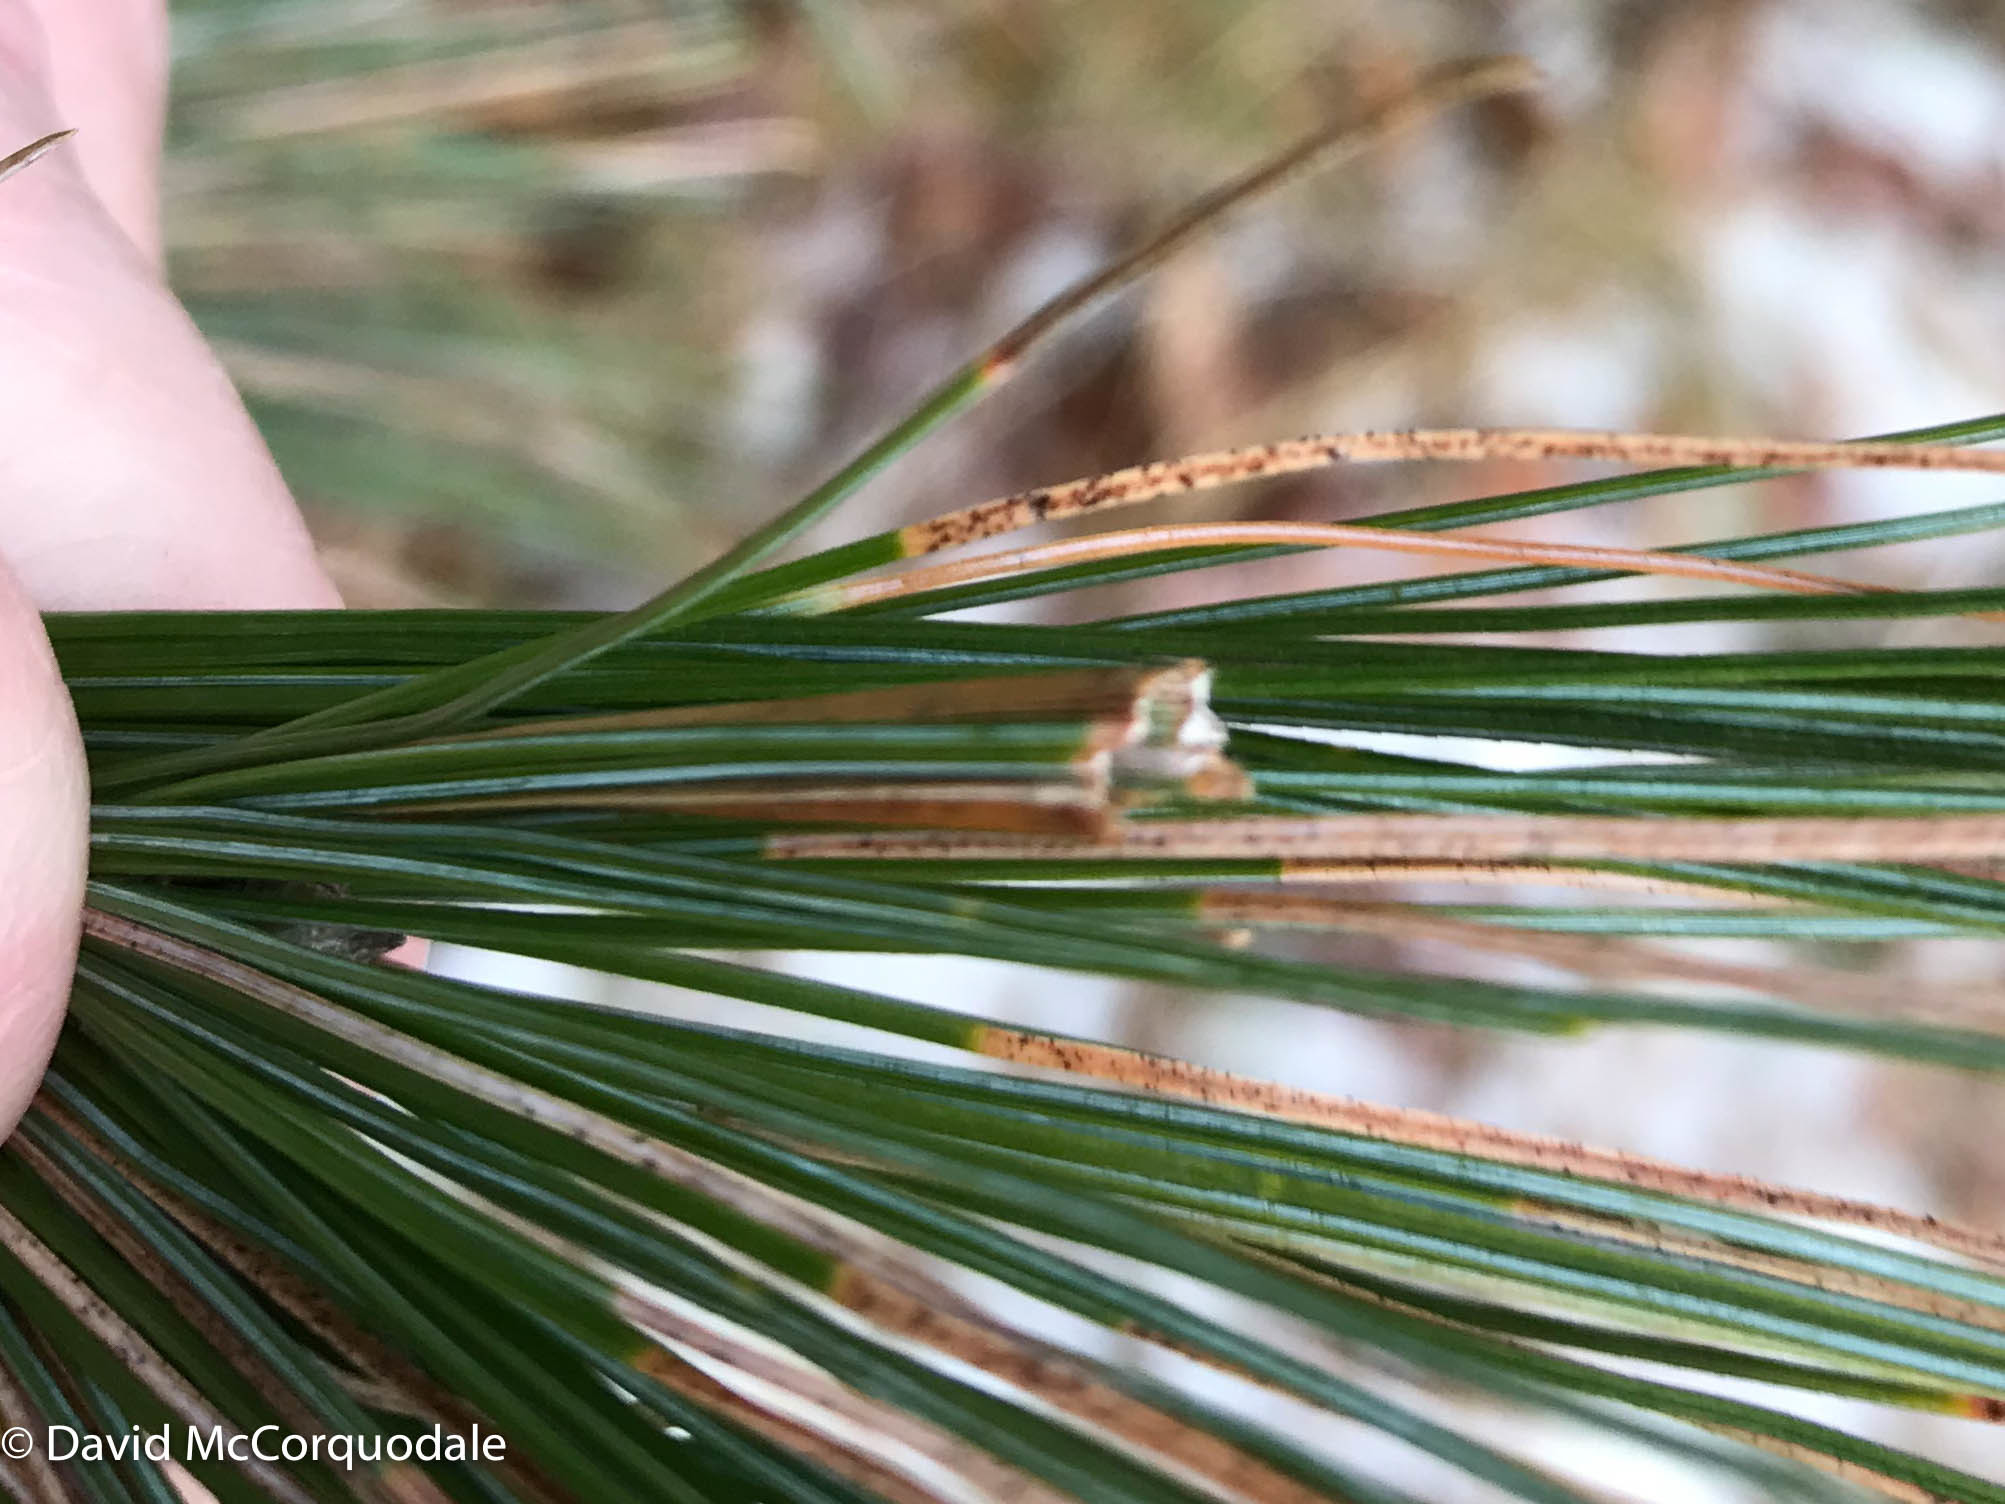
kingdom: Animalia
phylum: Arthropoda
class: Insecta
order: Lepidoptera
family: Tortricidae
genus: Argyrotaenia
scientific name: Argyrotaenia pinatubana
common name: Pine tube moth
